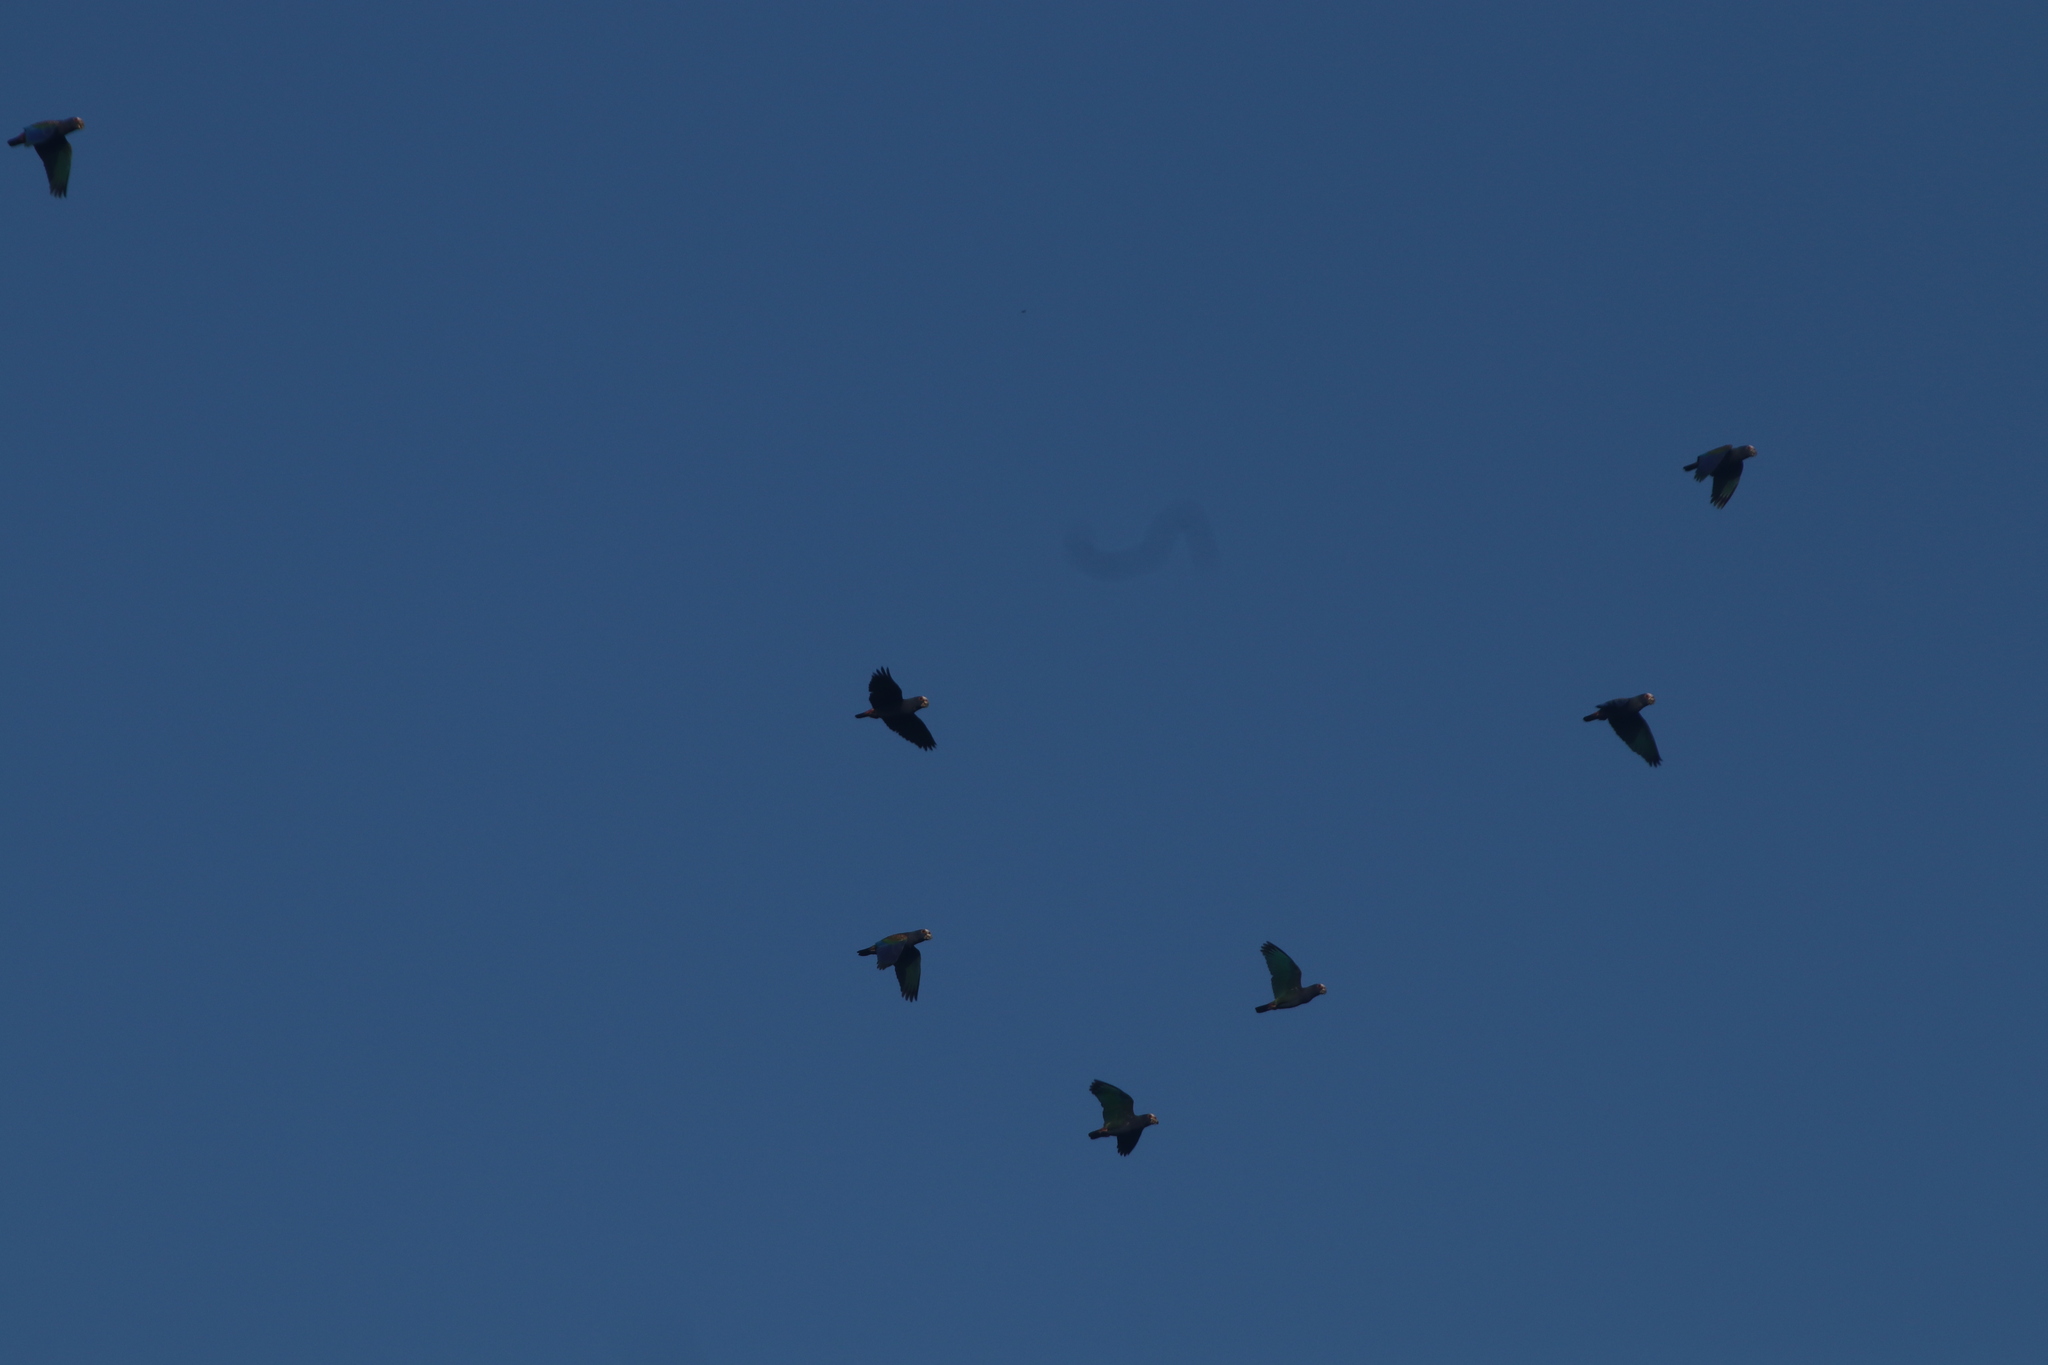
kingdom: Animalia
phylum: Chordata
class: Aves
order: Psittaciformes
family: Psittacidae
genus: Pionus
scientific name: Pionus senilis
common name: White-crowned parrot
